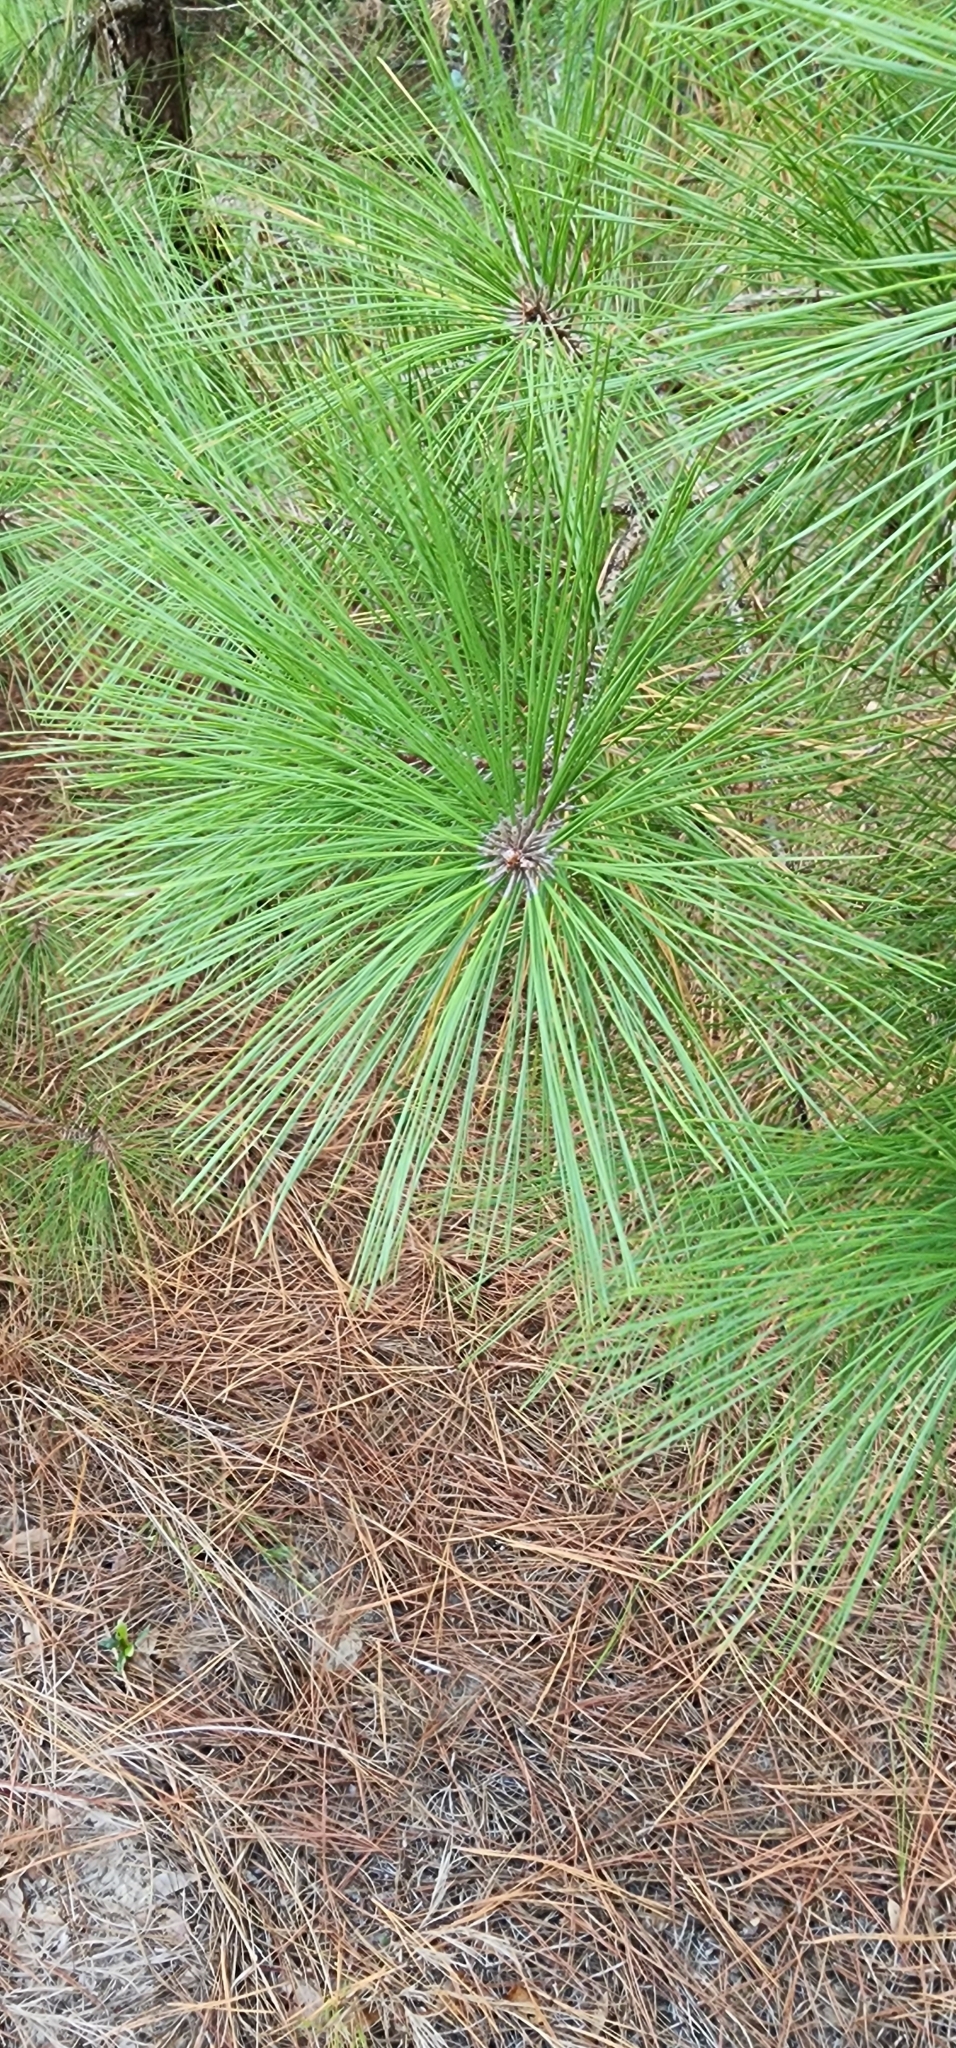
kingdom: Plantae
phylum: Tracheophyta
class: Pinopsida
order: Pinales
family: Pinaceae
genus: Pinus
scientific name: Pinus taeda
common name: Loblolly pine
